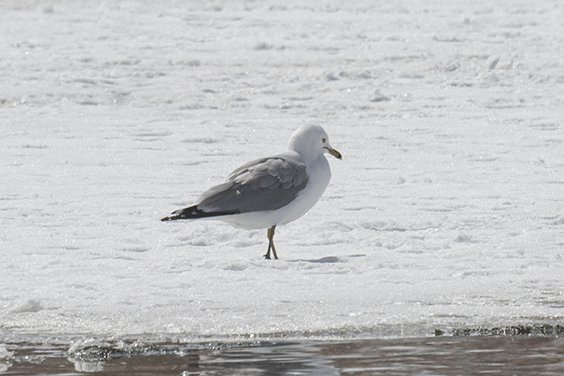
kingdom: Animalia
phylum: Chordata
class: Aves
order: Charadriiformes
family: Laridae
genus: Larus
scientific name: Larus delawarensis
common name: Ring-billed gull
